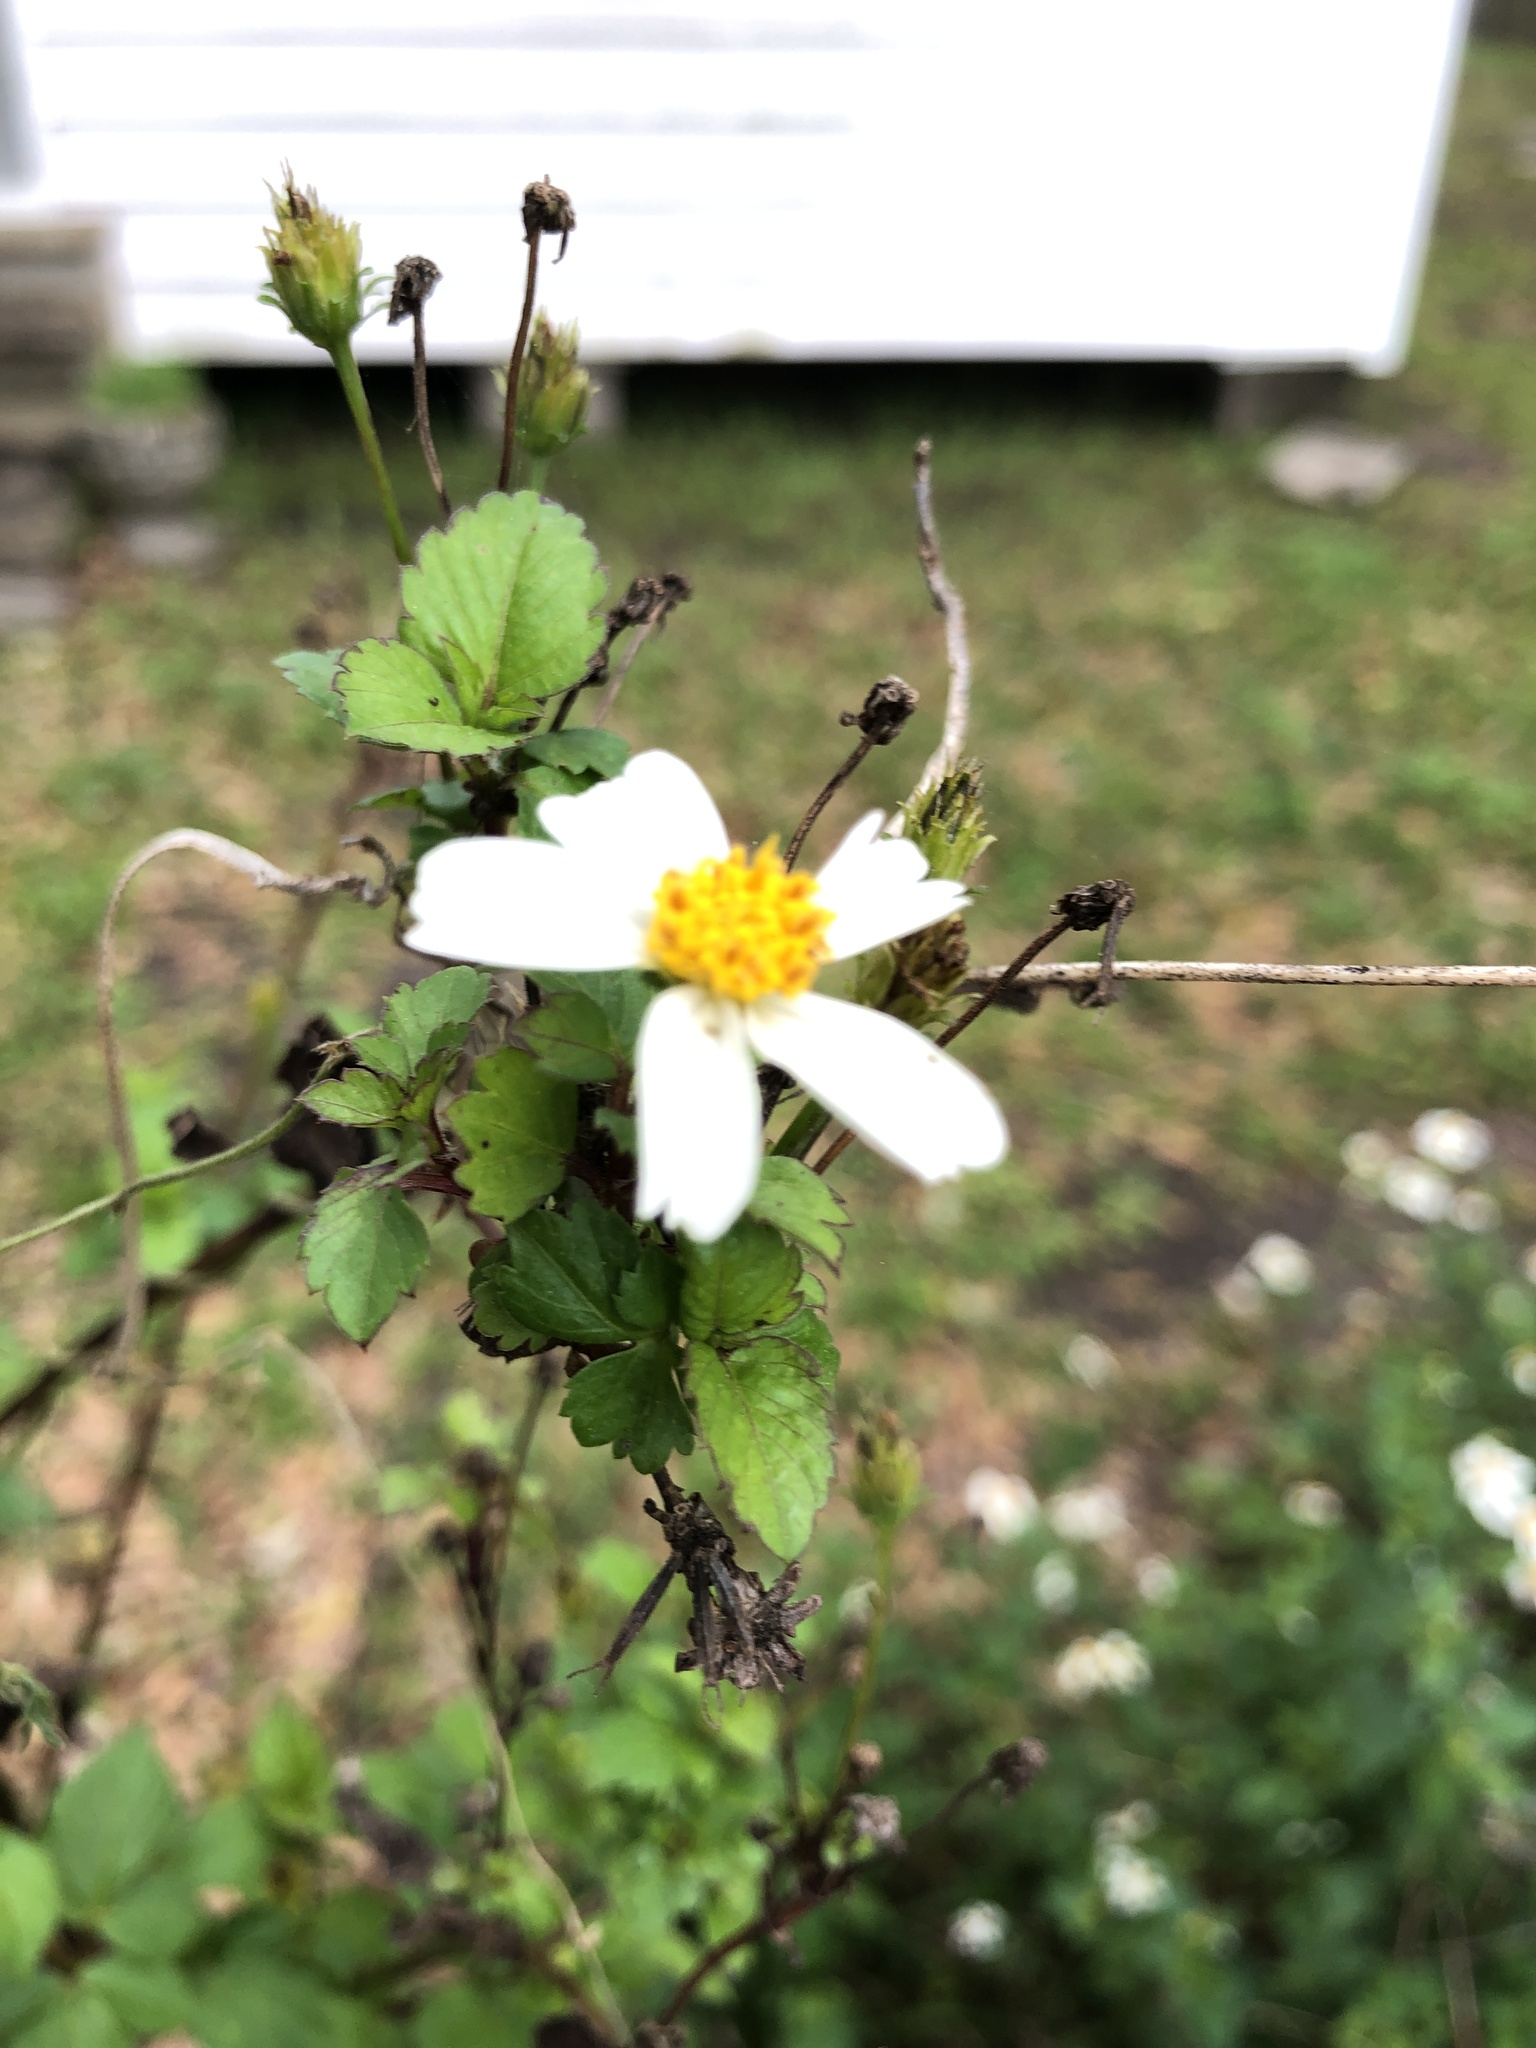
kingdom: Plantae
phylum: Tracheophyta
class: Magnoliopsida
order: Asterales
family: Asteraceae
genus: Bidens
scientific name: Bidens alba
